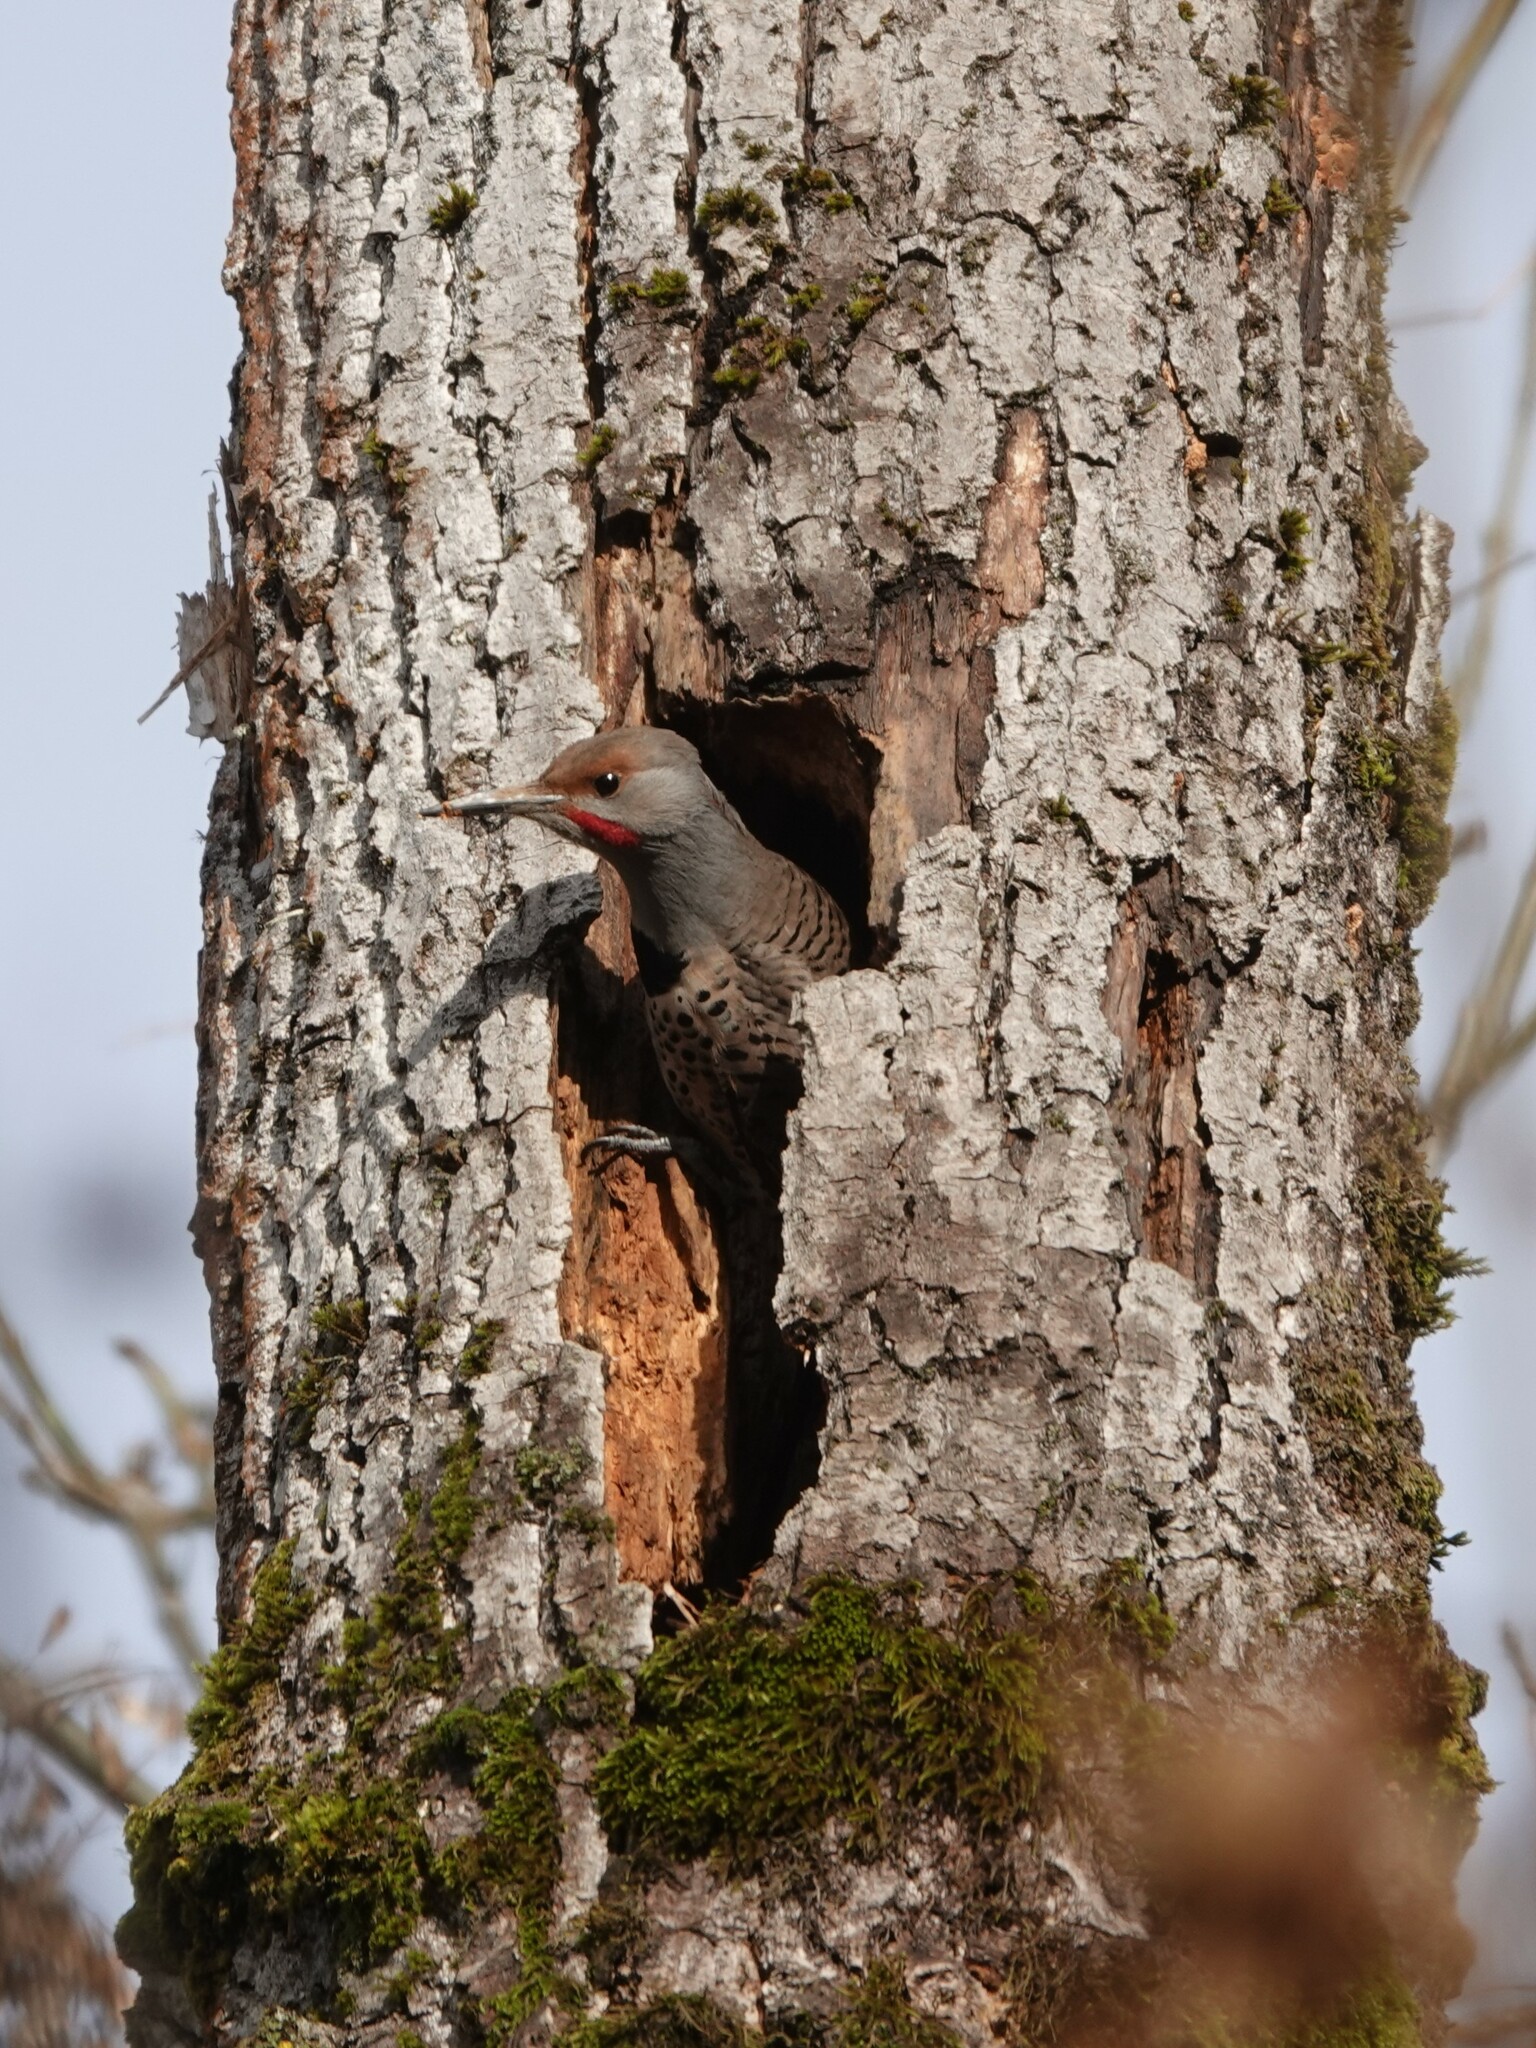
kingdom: Animalia
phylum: Chordata
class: Aves
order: Piciformes
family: Picidae
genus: Colaptes
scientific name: Colaptes auratus
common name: Northern flicker
